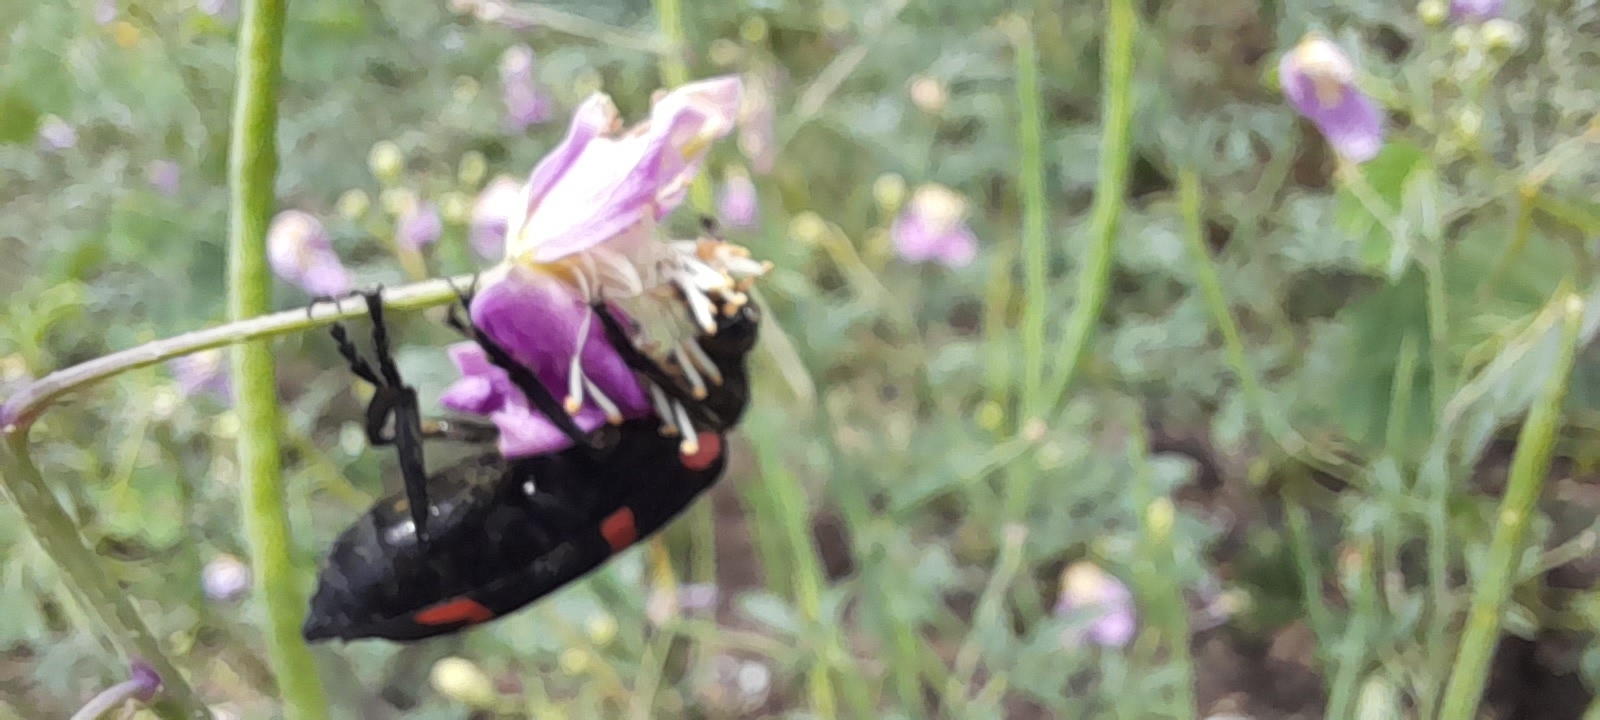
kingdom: Animalia
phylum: Arthropoda
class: Insecta
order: Coleoptera
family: Meloidae
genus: Hycleus
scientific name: Hycleus biundulatus
